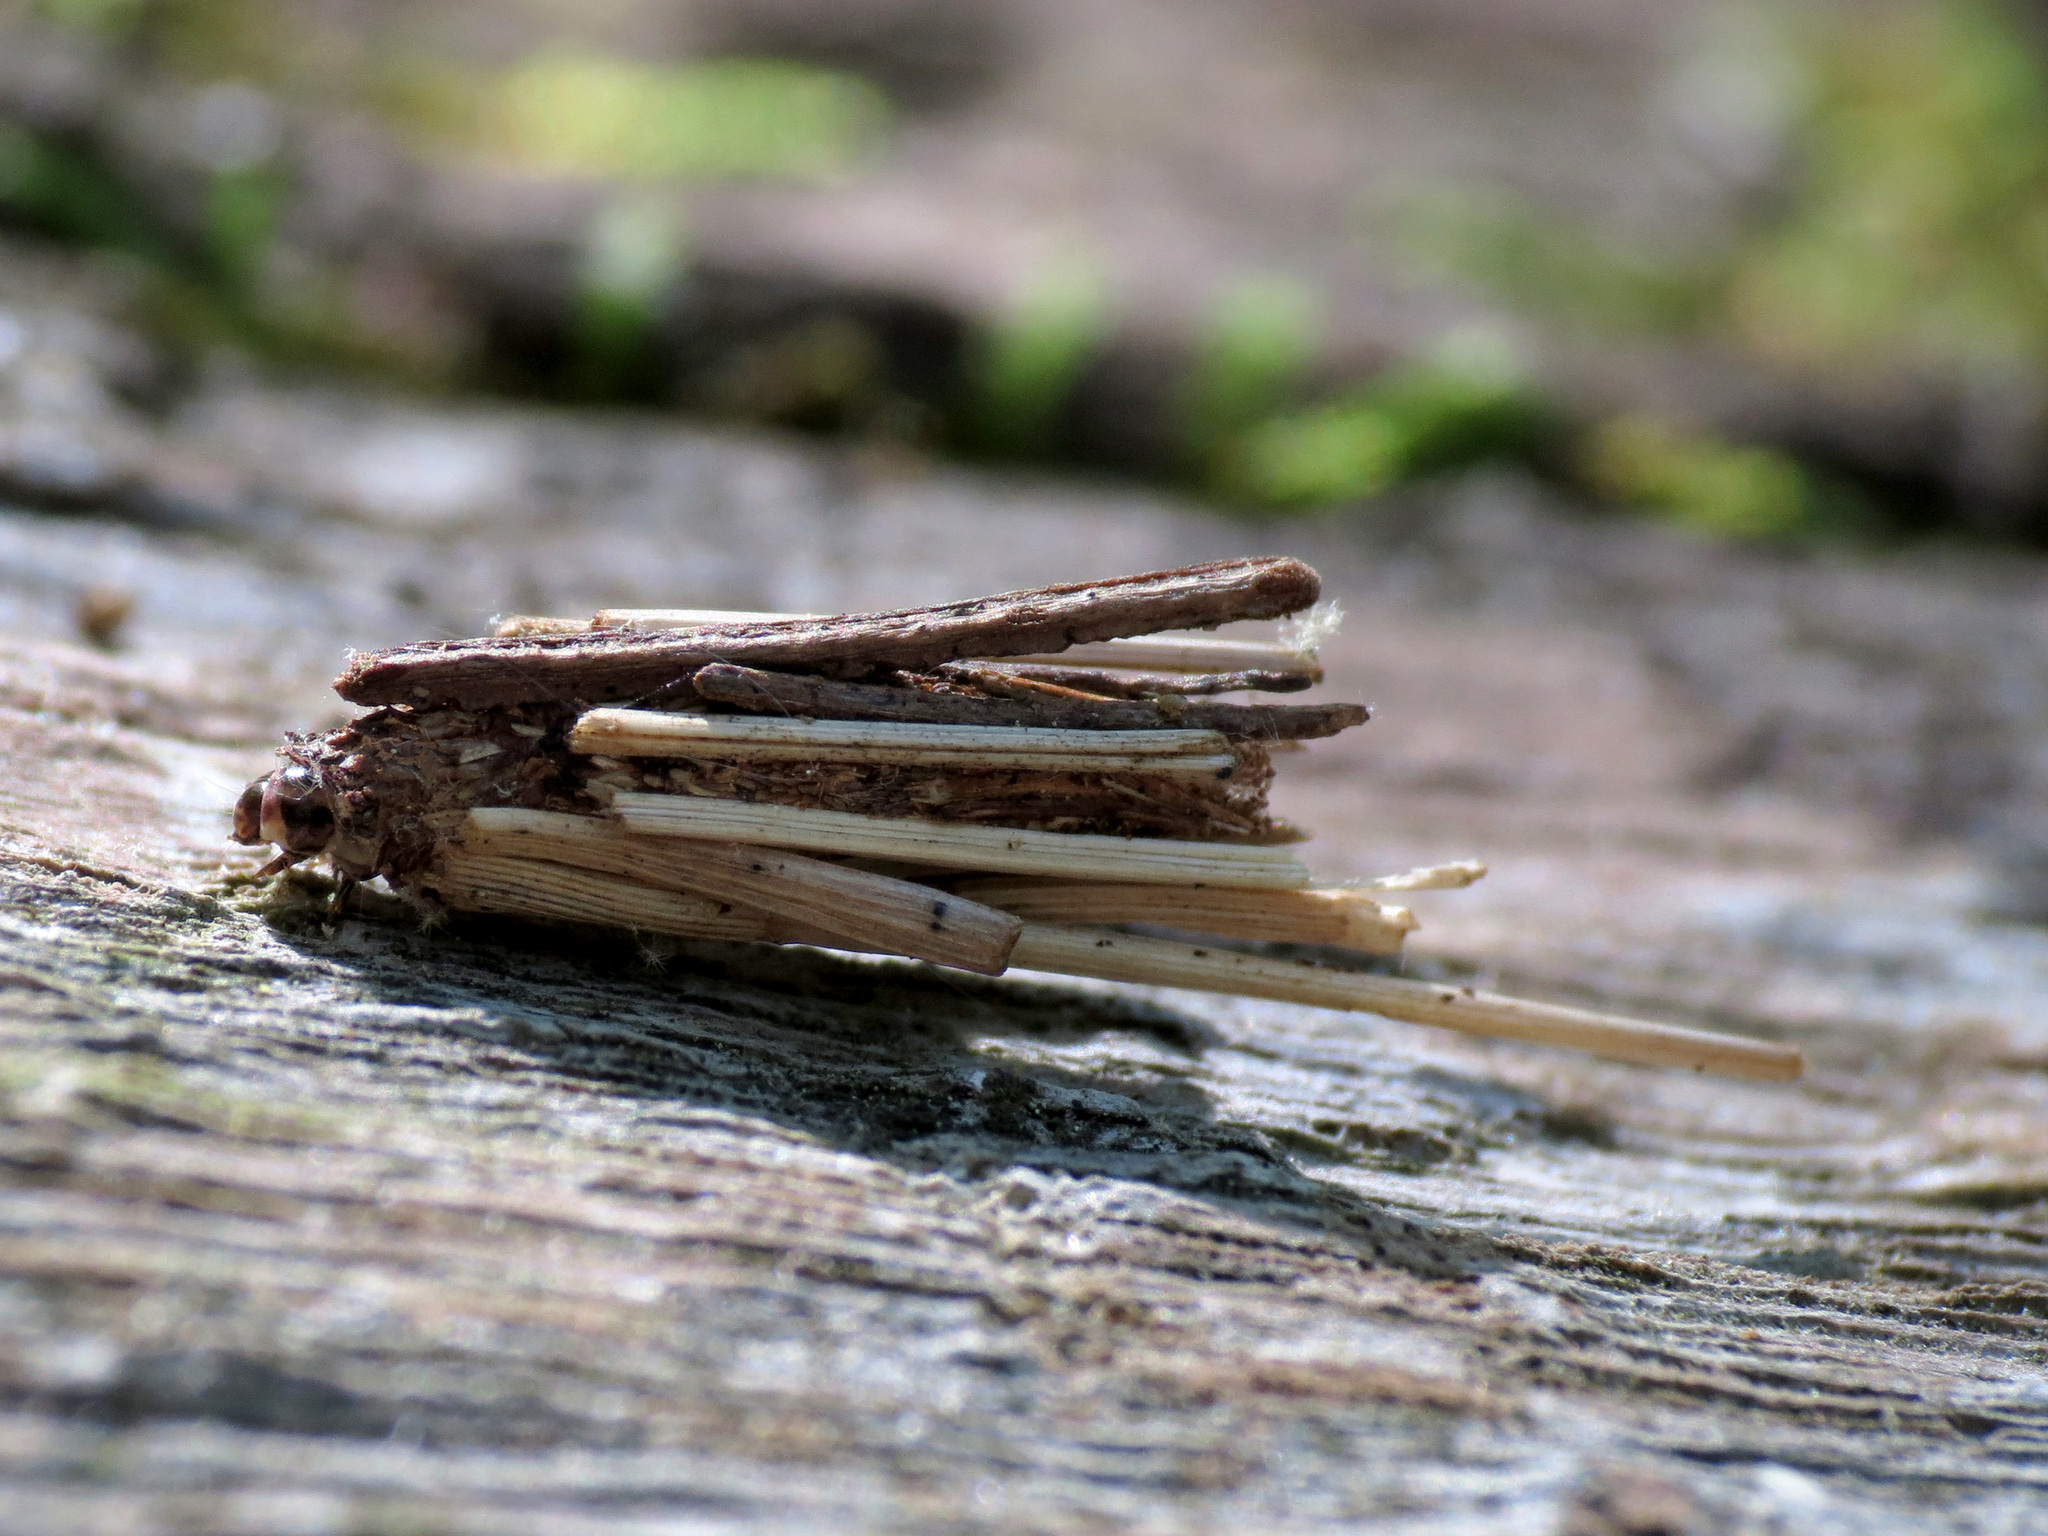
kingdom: Animalia
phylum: Arthropoda
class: Insecta
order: Lepidoptera
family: Psychidae
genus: Psyche
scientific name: Psyche casta
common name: Common sweep
